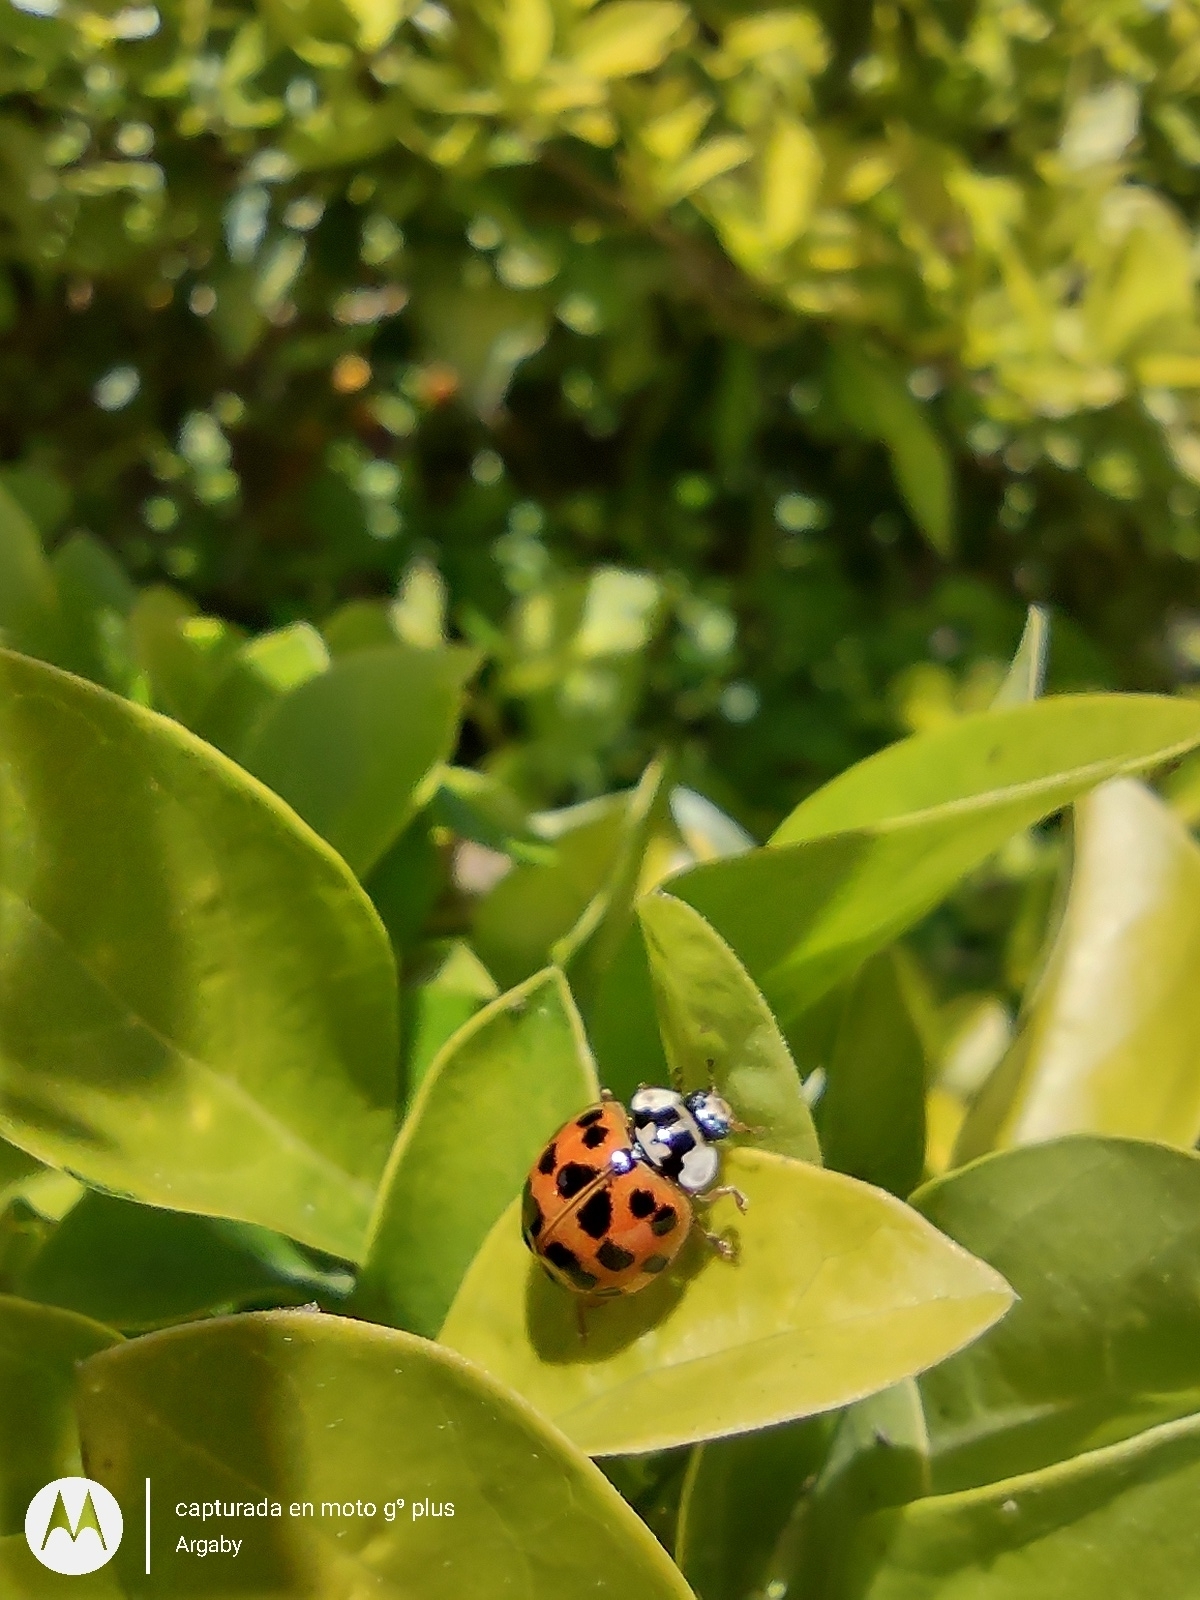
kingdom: Animalia
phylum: Arthropoda
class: Insecta
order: Coleoptera
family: Coccinellidae
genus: Harmonia
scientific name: Harmonia axyridis
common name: Harlequin ladybird
